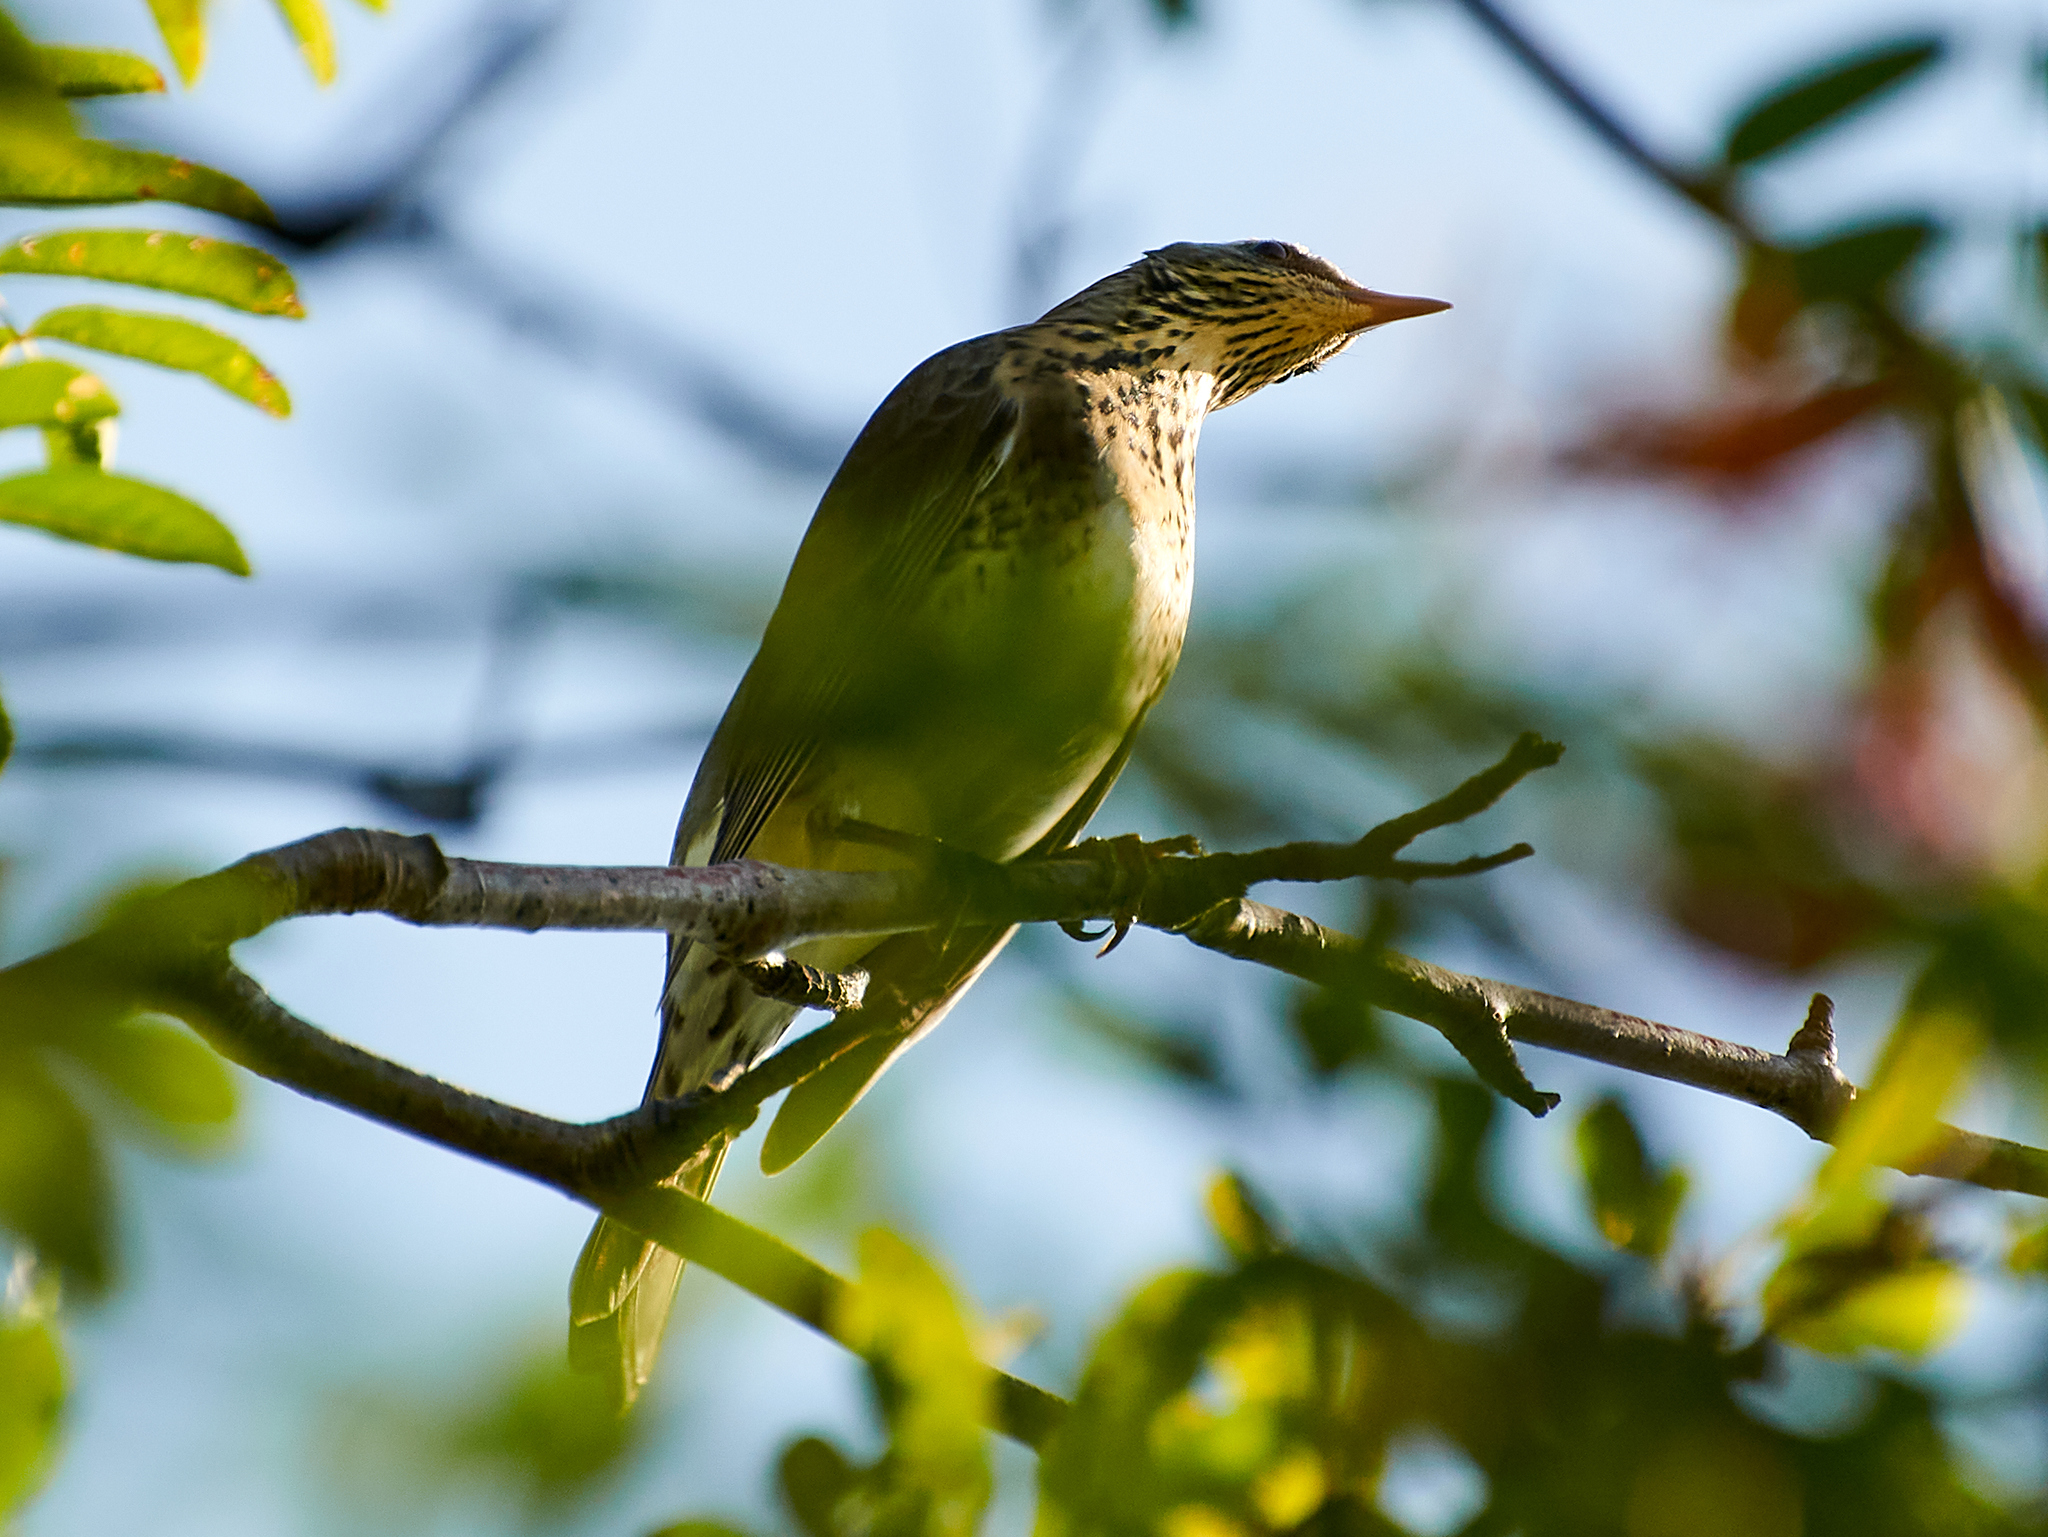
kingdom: Animalia
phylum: Chordata
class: Aves
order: Passeriformes
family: Turdidae
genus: Turdus
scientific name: Turdus pilaris
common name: Fieldfare
